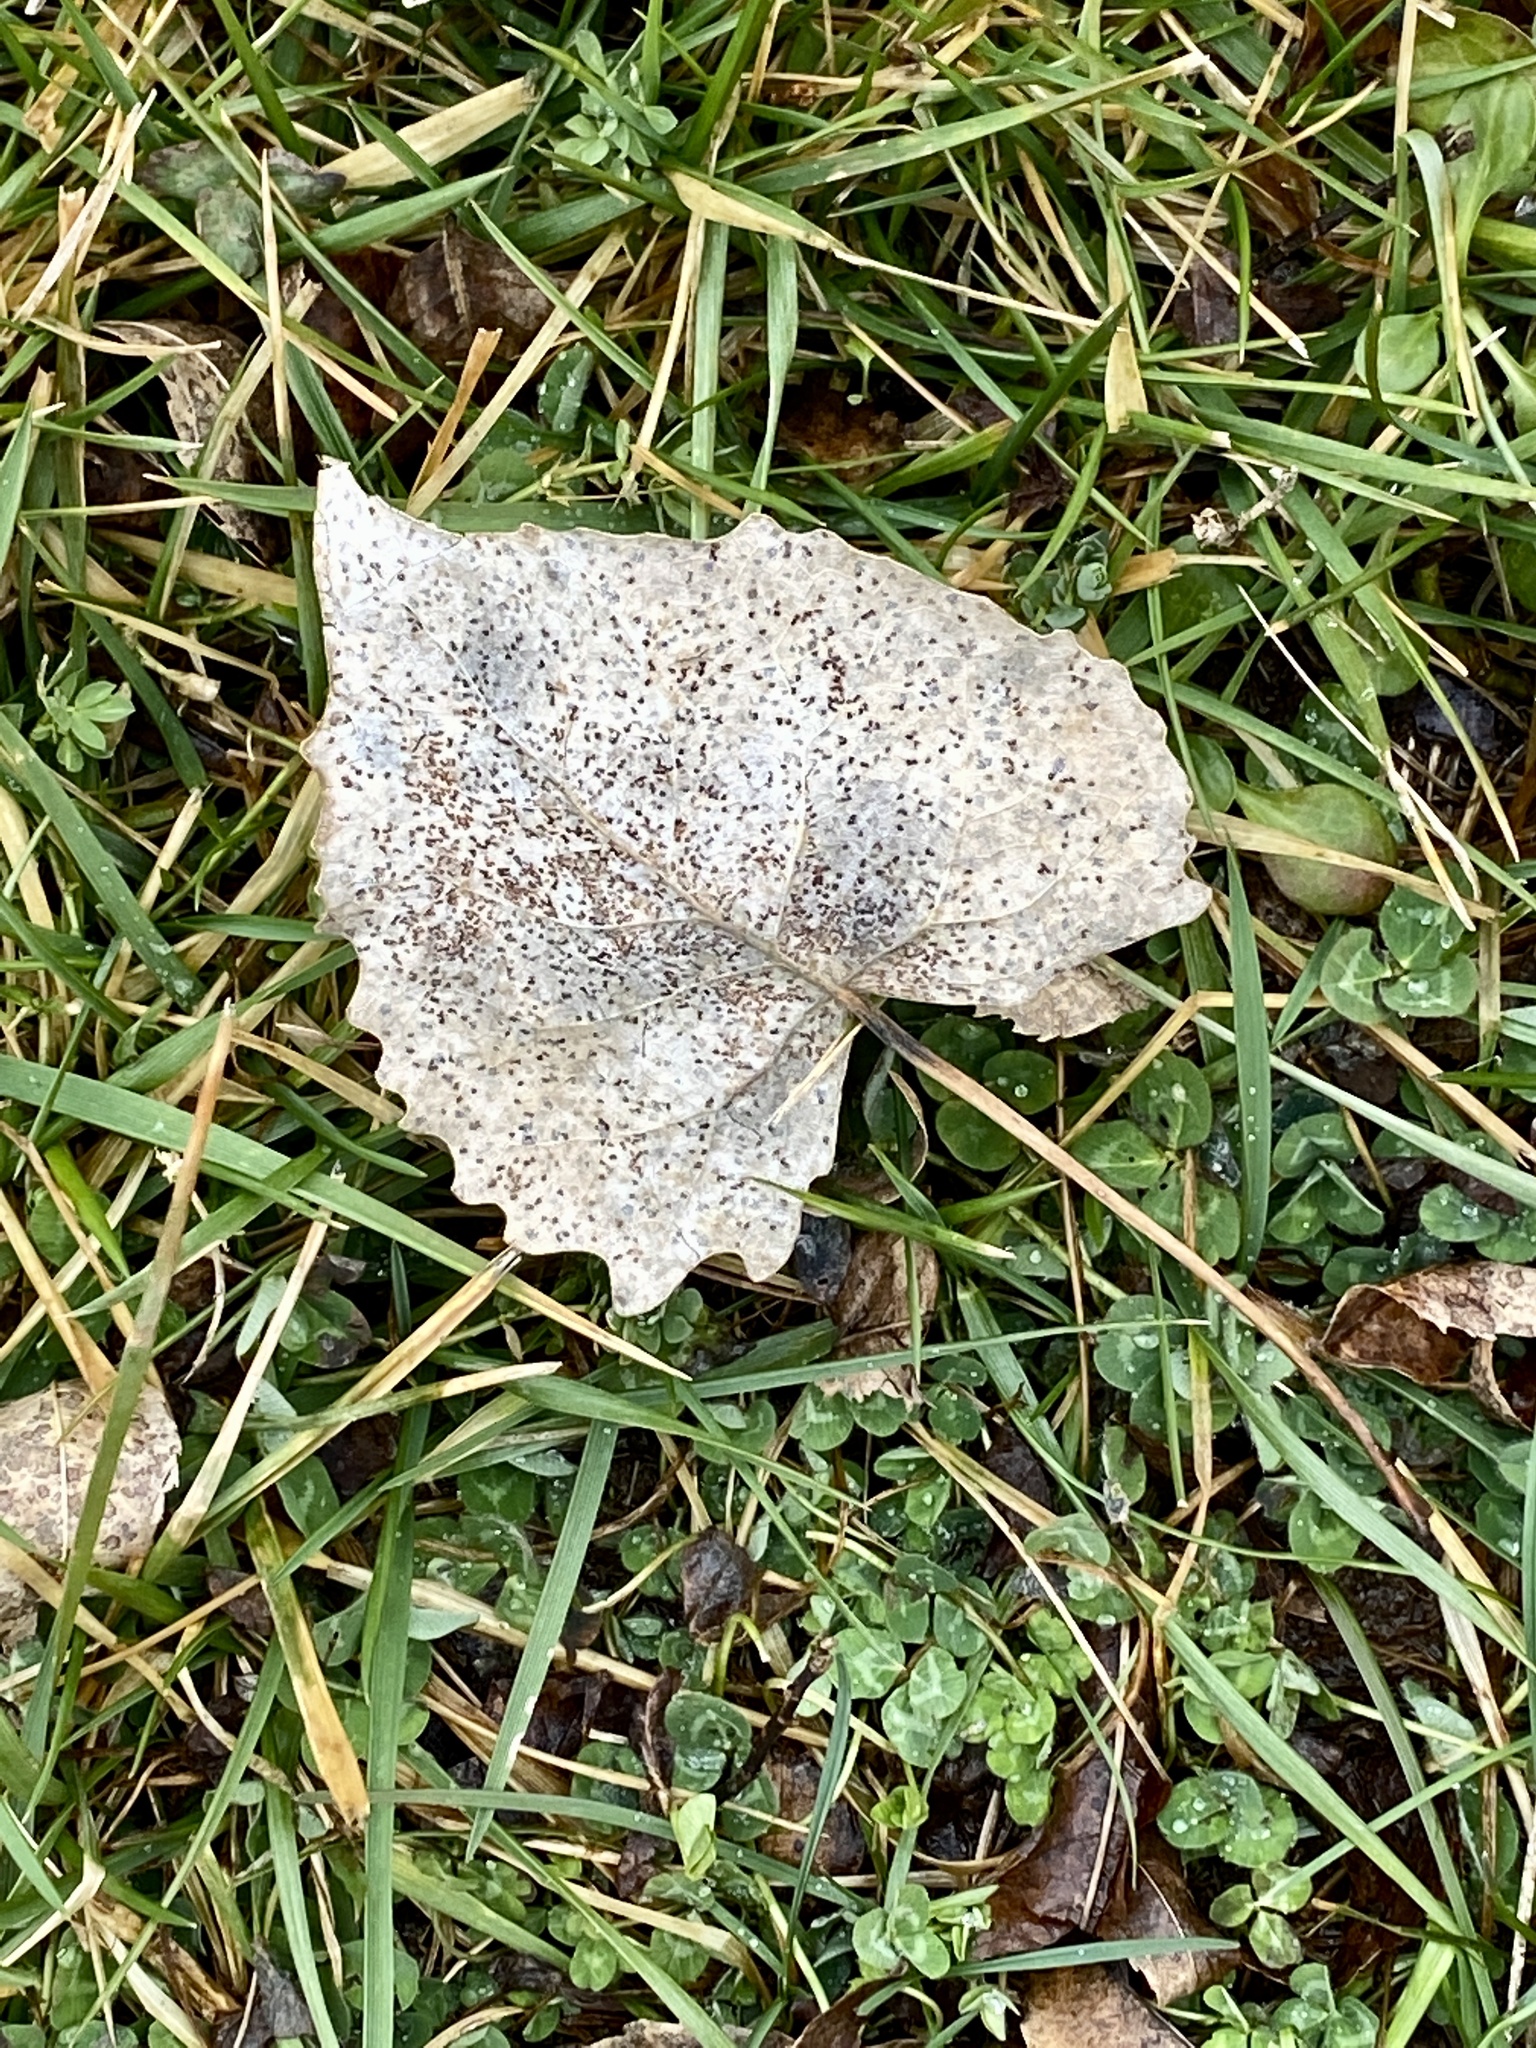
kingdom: Plantae
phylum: Tracheophyta
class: Magnoliopsida
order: Malpighiales
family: Salicaceae
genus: Populus
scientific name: Populus deltoides
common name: Eastern cottonwood
